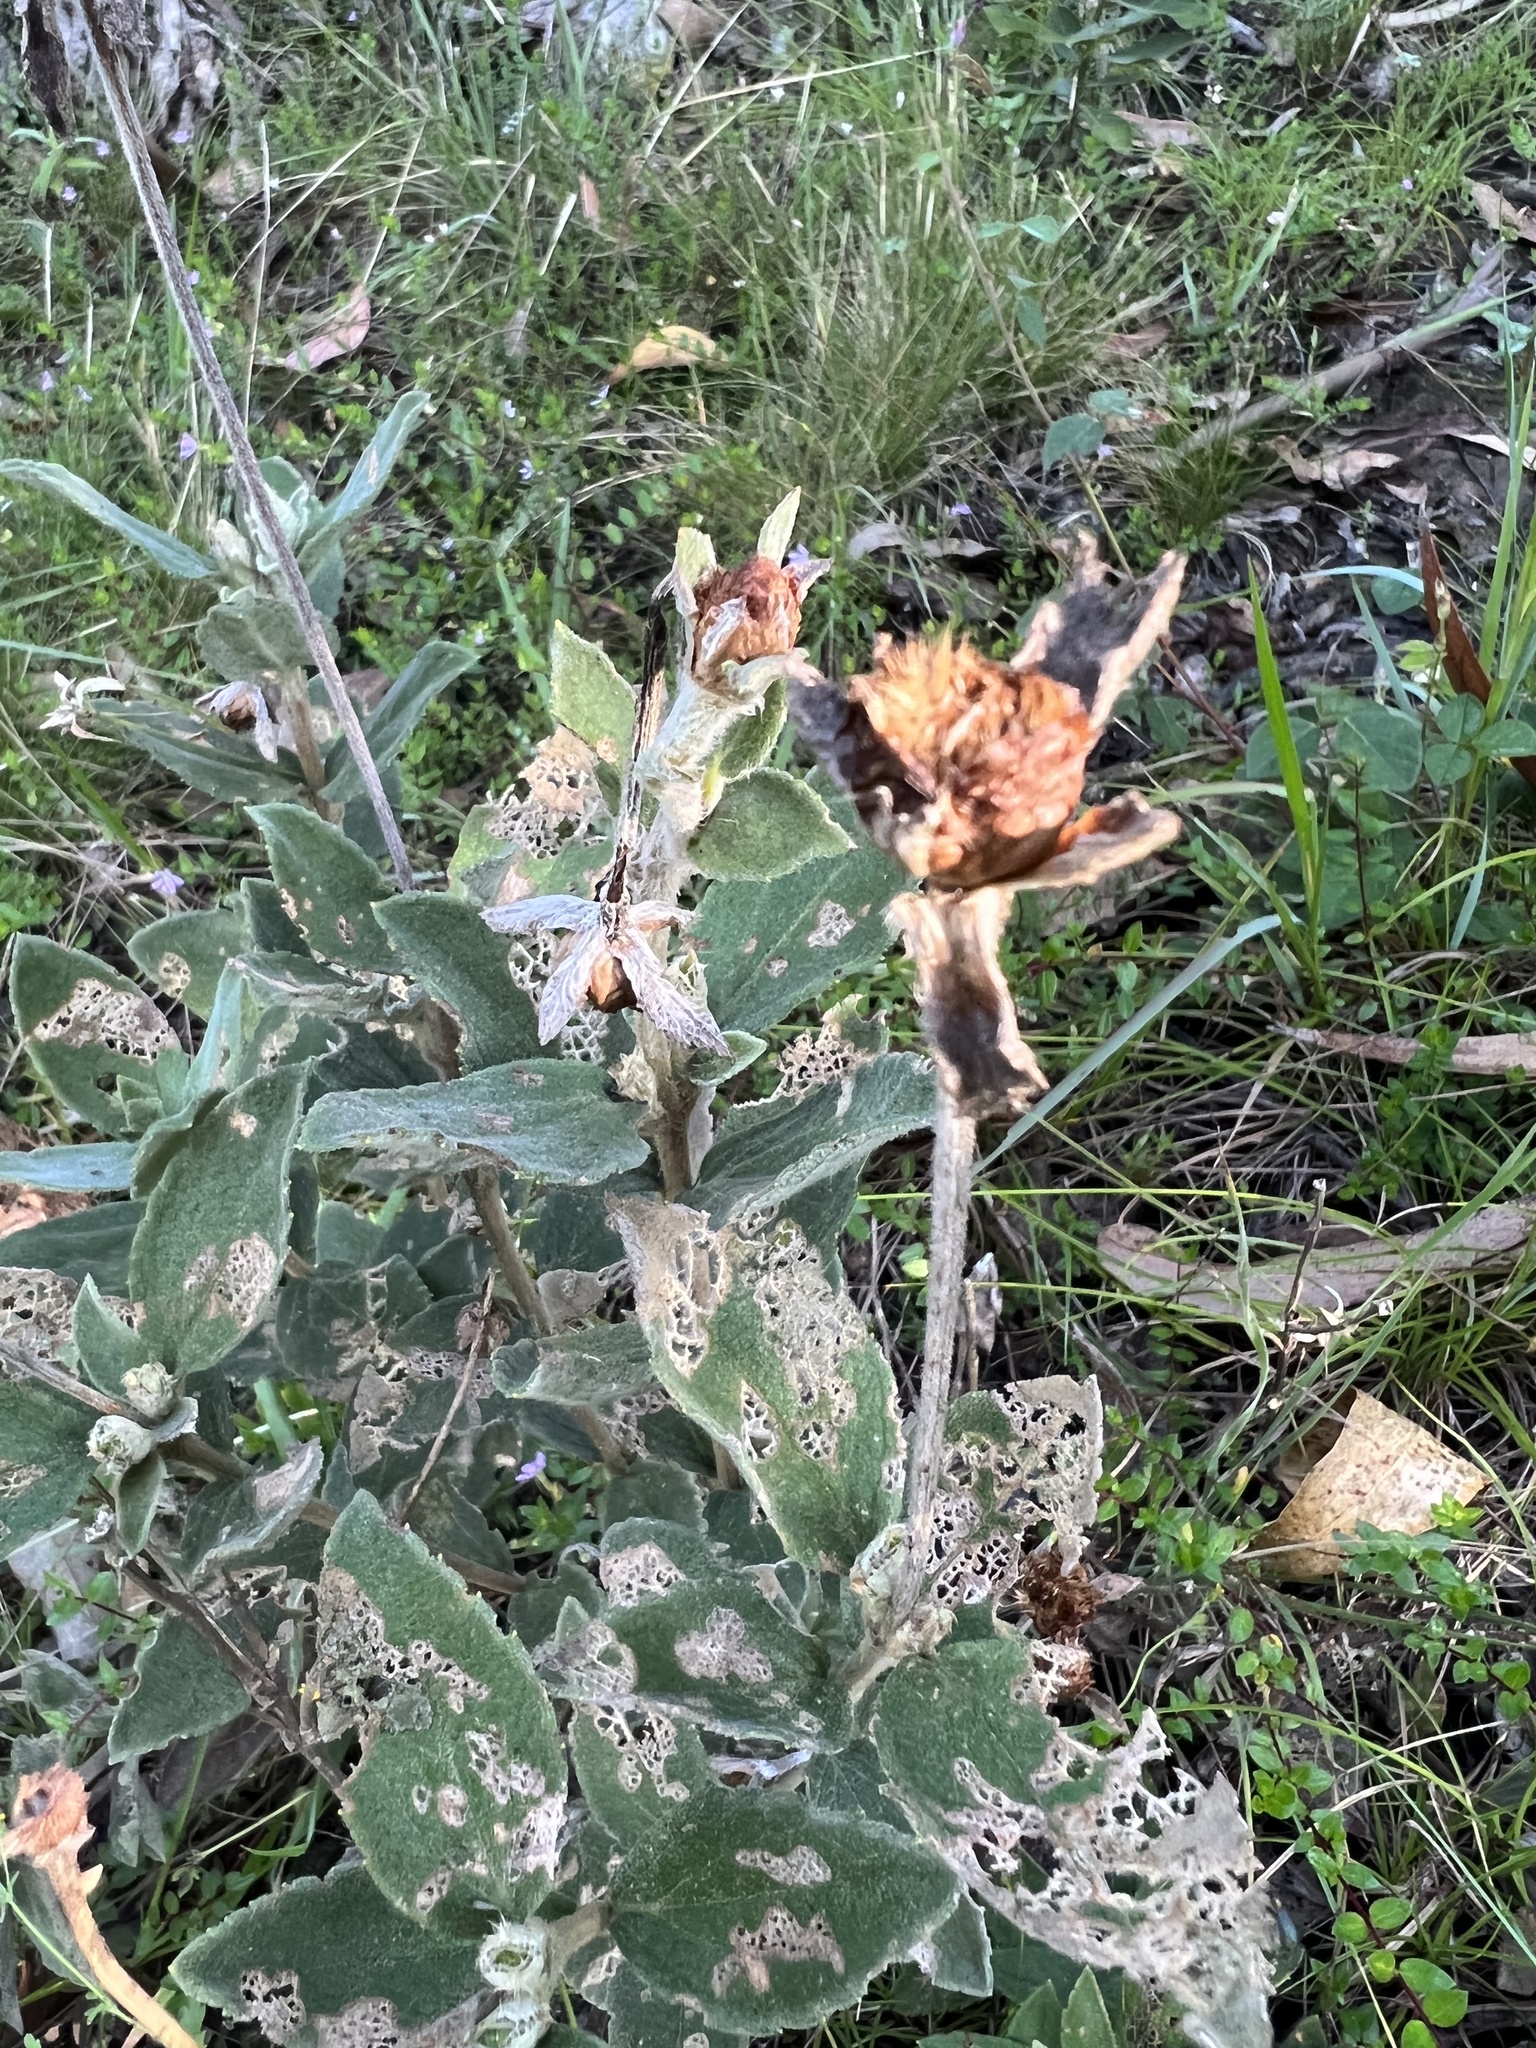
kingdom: Plantae
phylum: Tracheophyta
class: Magnoliopsida
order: Asterales
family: Asteraceae
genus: Calea
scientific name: Calea peruviana
